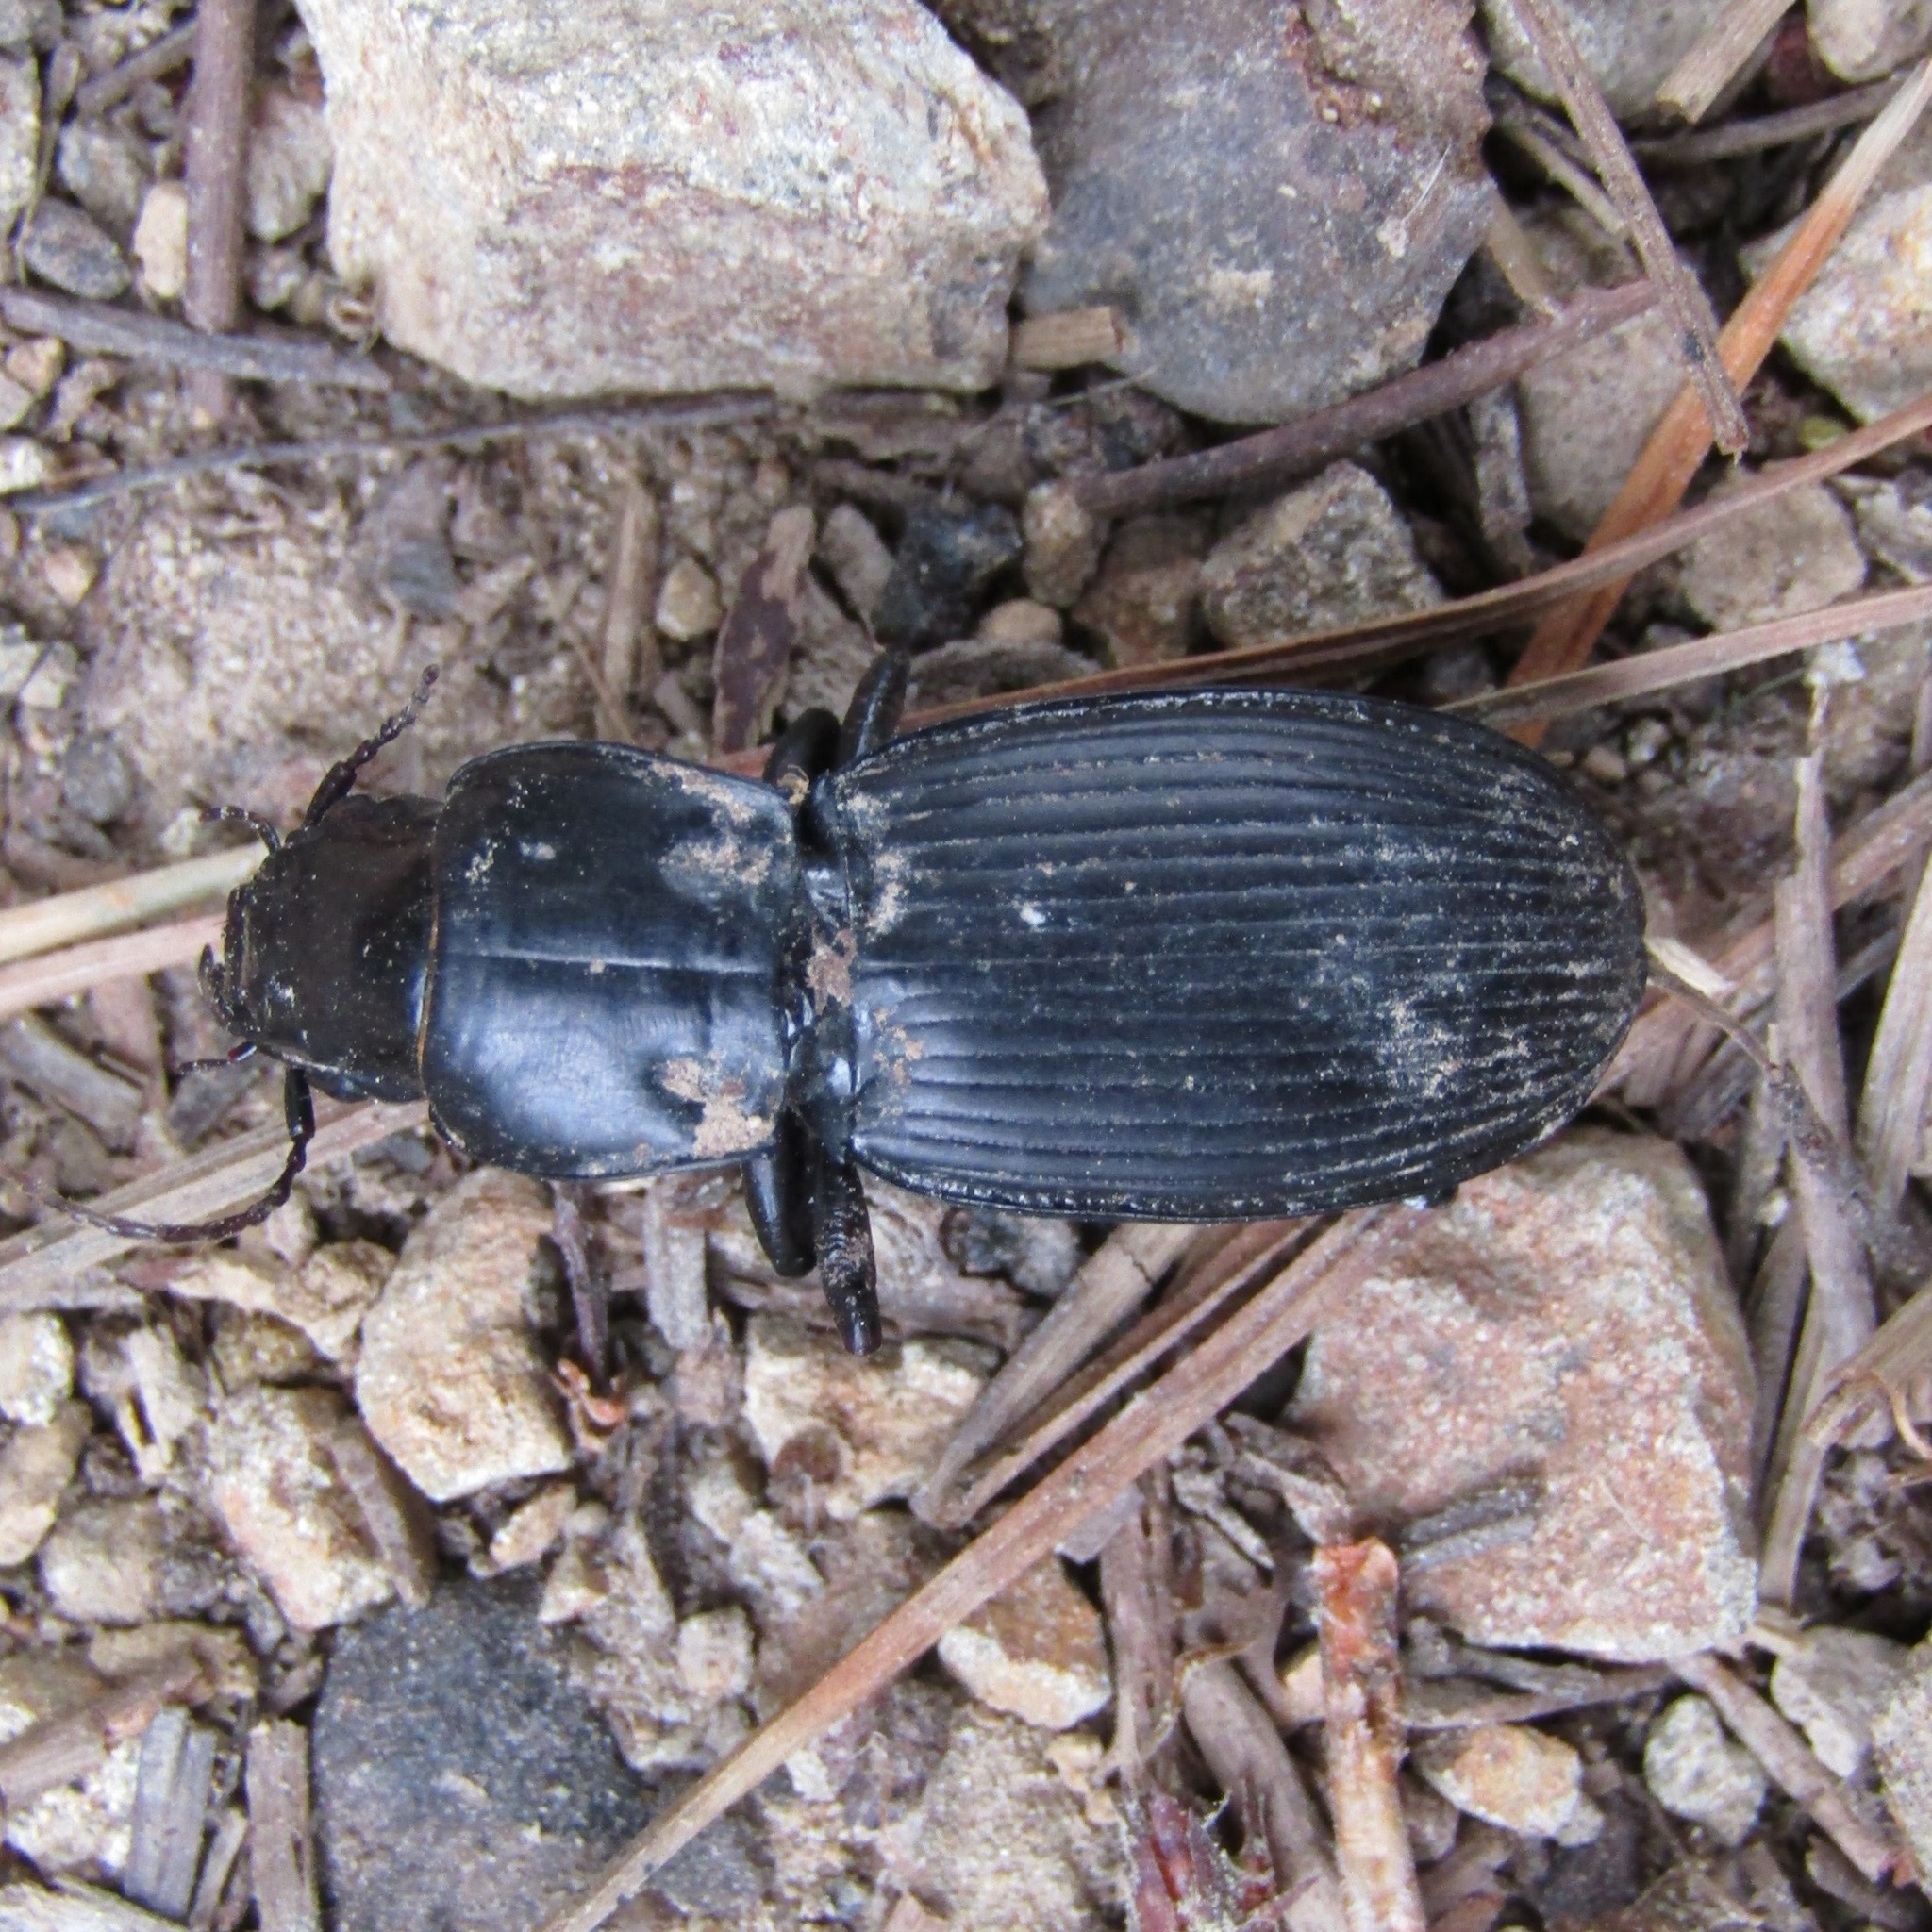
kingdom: Animalia
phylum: Arthropoda
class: Insecta
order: Coleoptera
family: Carabidae
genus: Plocamostethus
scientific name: Plocamostethus planiusculus
